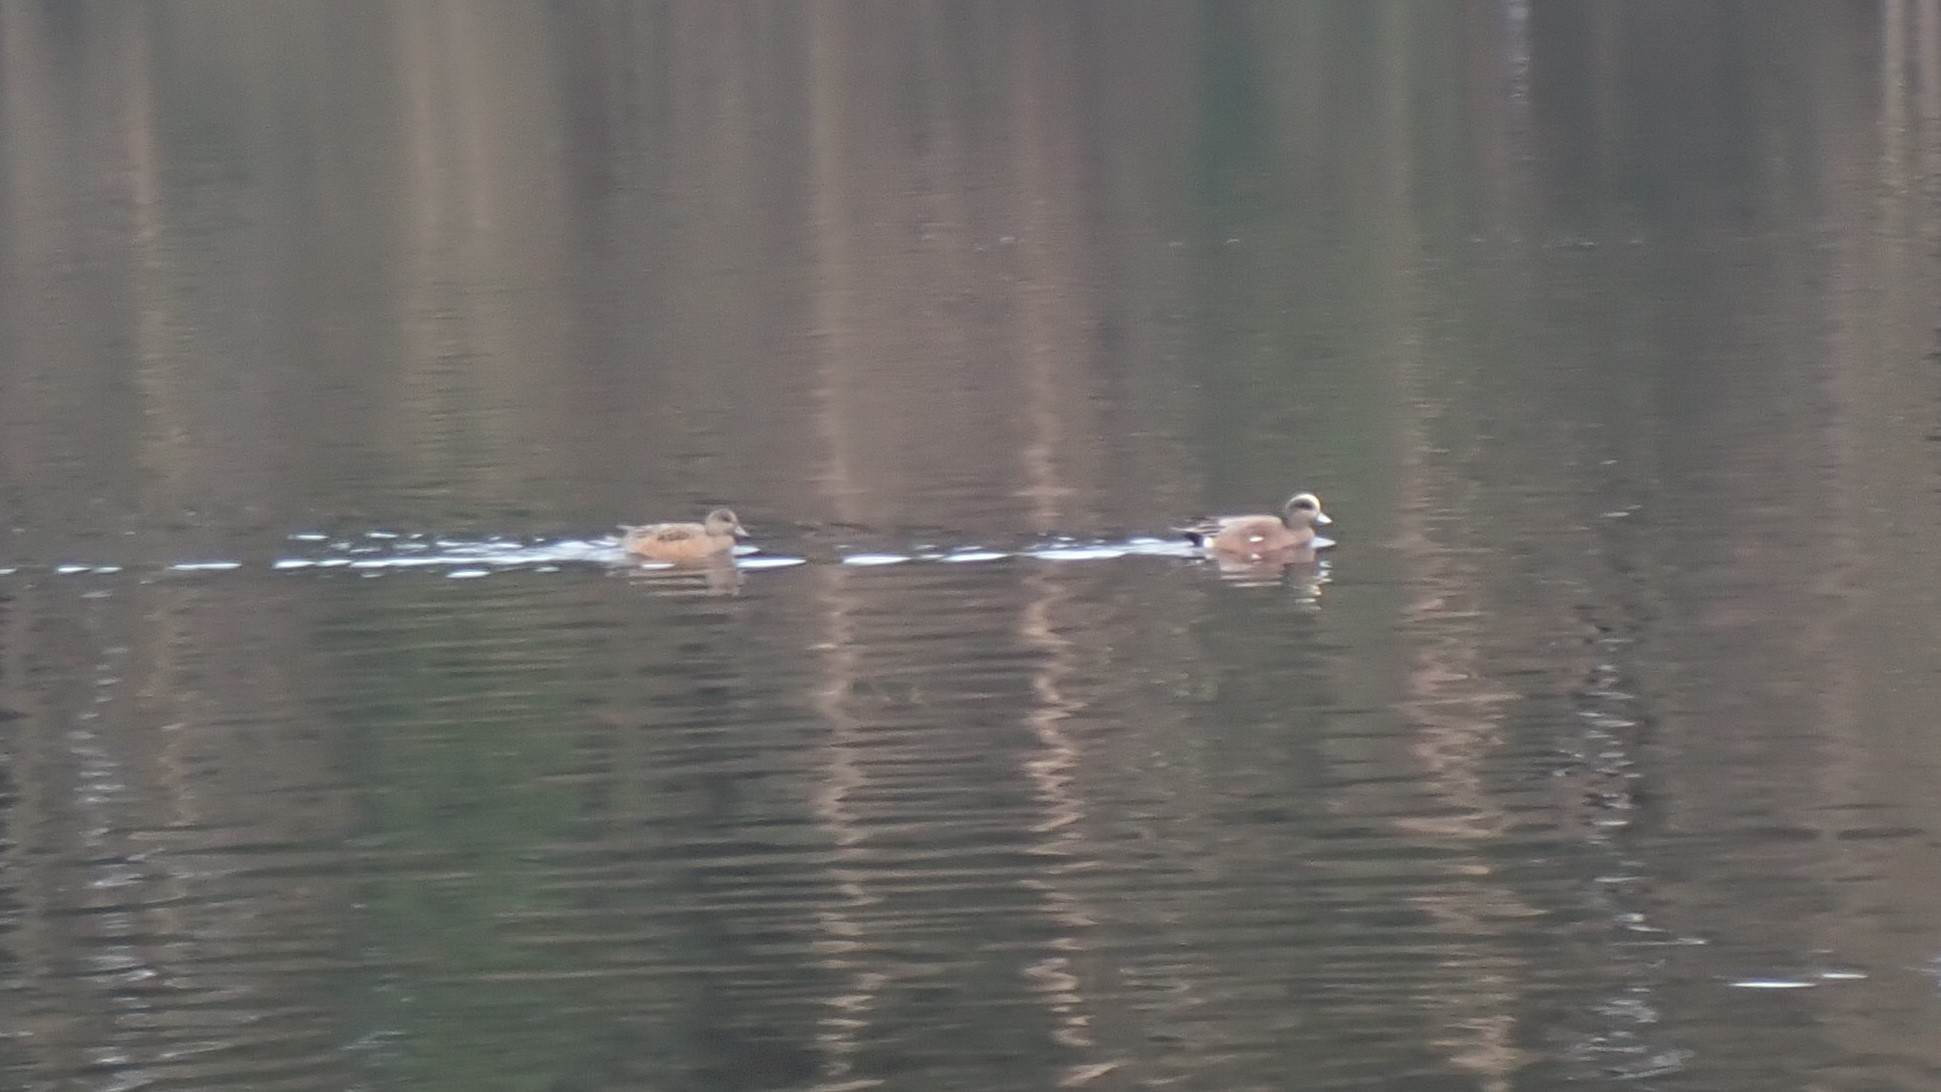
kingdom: Animalia
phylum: Chordata
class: Aves
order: Anseriformes
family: Anatidae
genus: Mareca
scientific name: Mareca americana
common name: American wigeon
